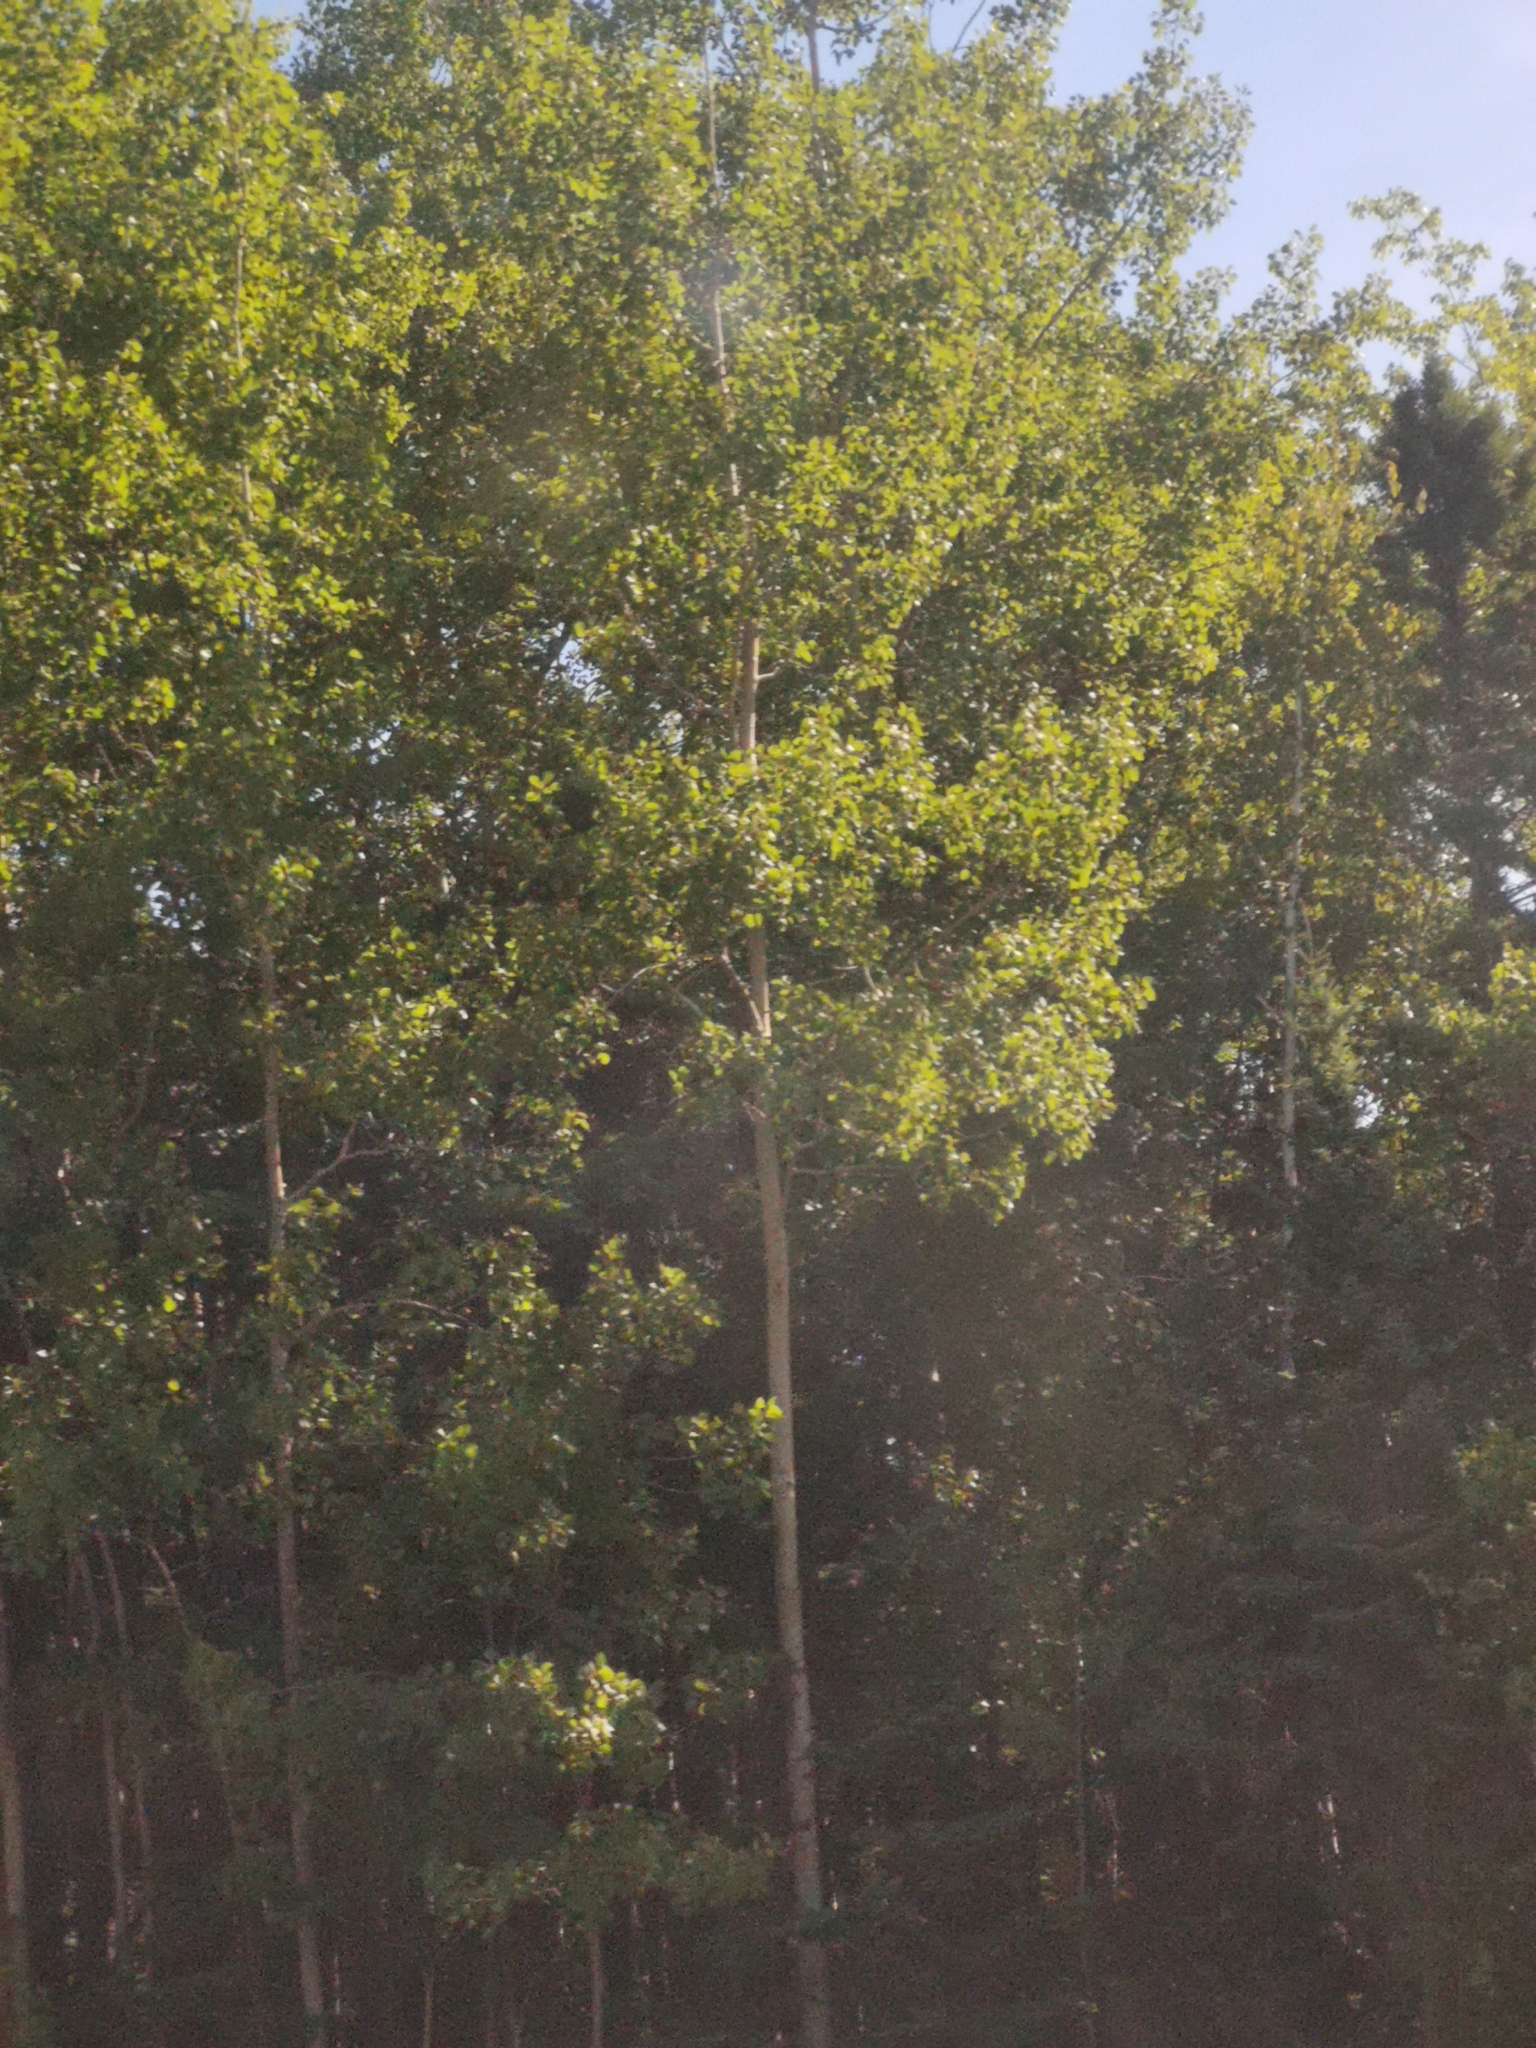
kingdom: Plantae
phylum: Tracheophyta
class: Magnoliopsida
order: Malpighiales
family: Salicaceae
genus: Populus
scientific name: Populus tremuloides
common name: Quaking aspen
